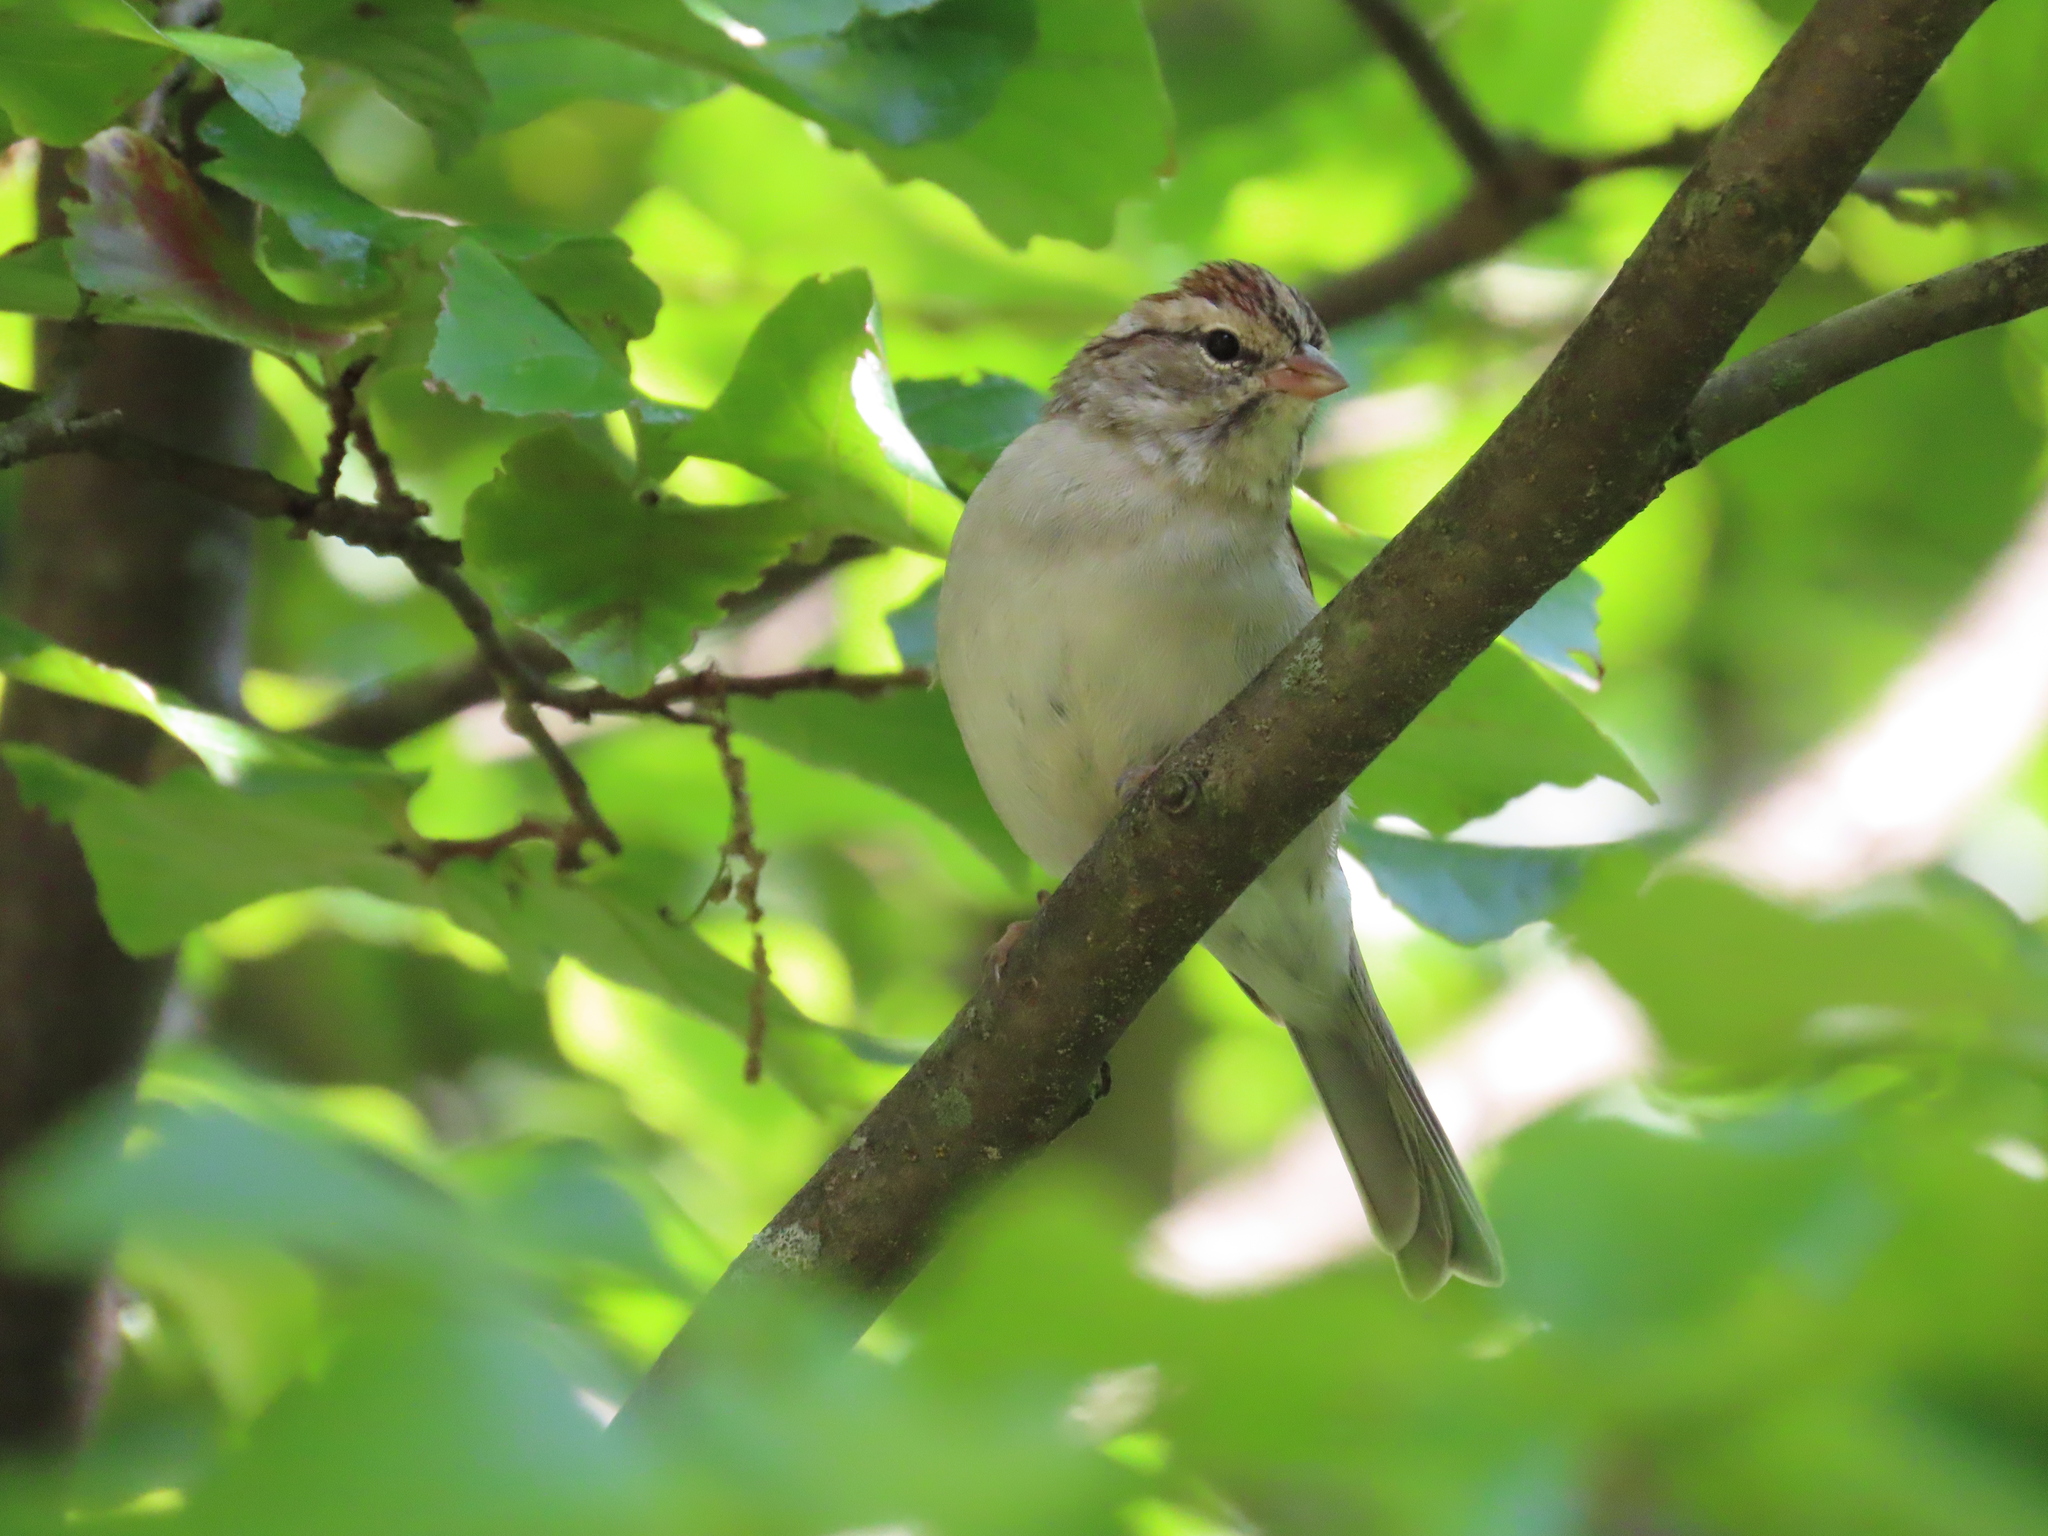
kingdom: Animalia
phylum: Chordata
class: Aves
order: Passeriformes
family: Passerellidae
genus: Spizella
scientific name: Spizella passerina
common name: Chipping sparrow
